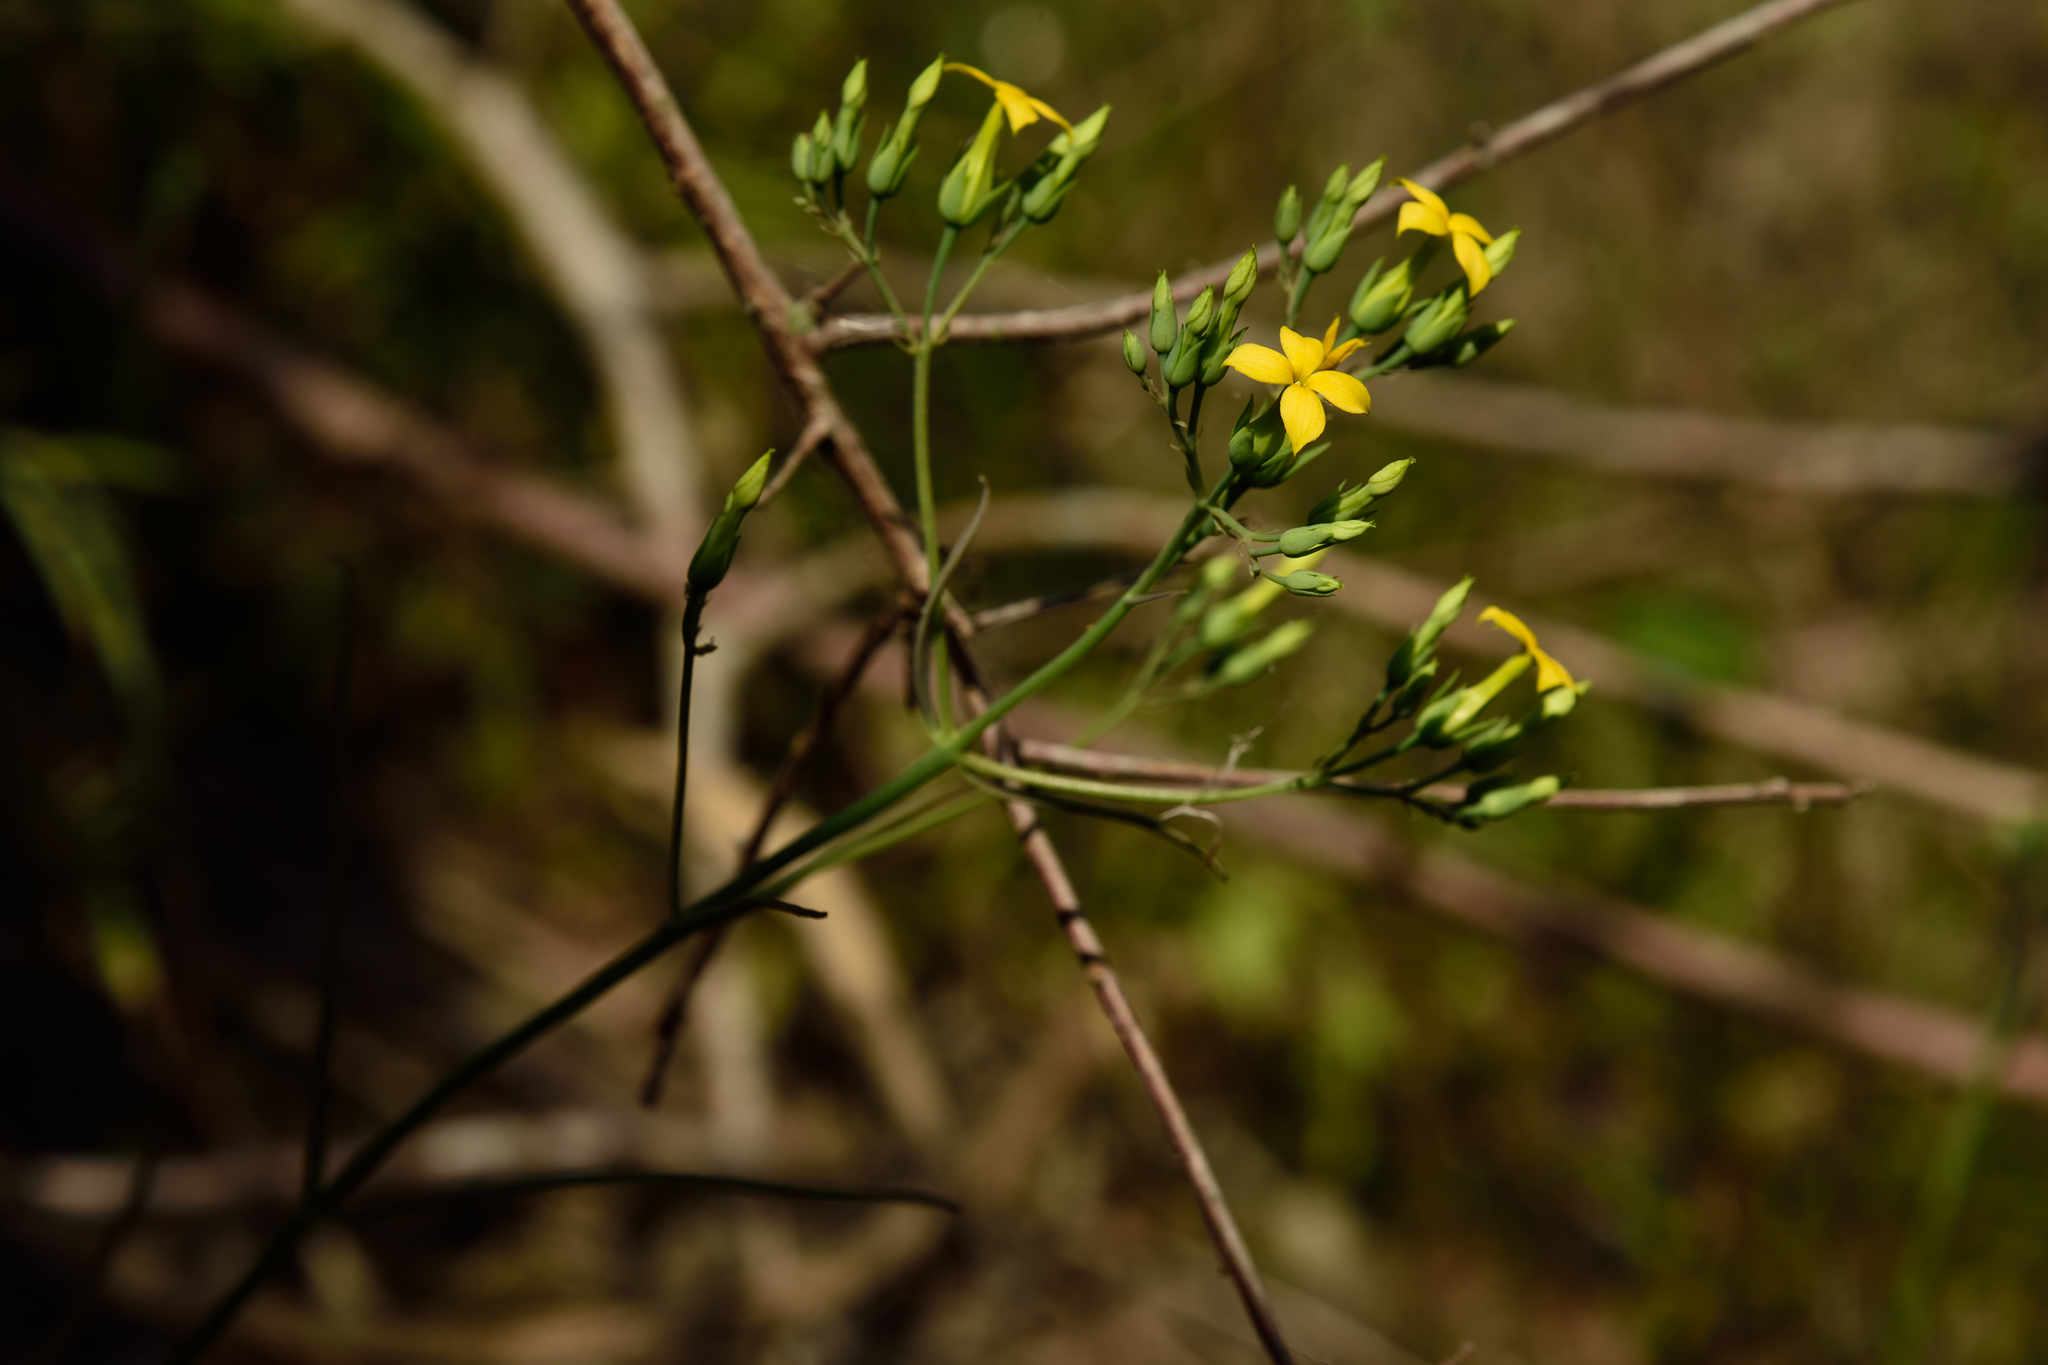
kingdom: Plantae
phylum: Tracheophyta
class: Magnoliopsida
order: Saxifragales
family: Crassulaceae
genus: Kalanchoe
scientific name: Kalanchoe ceratophylla
